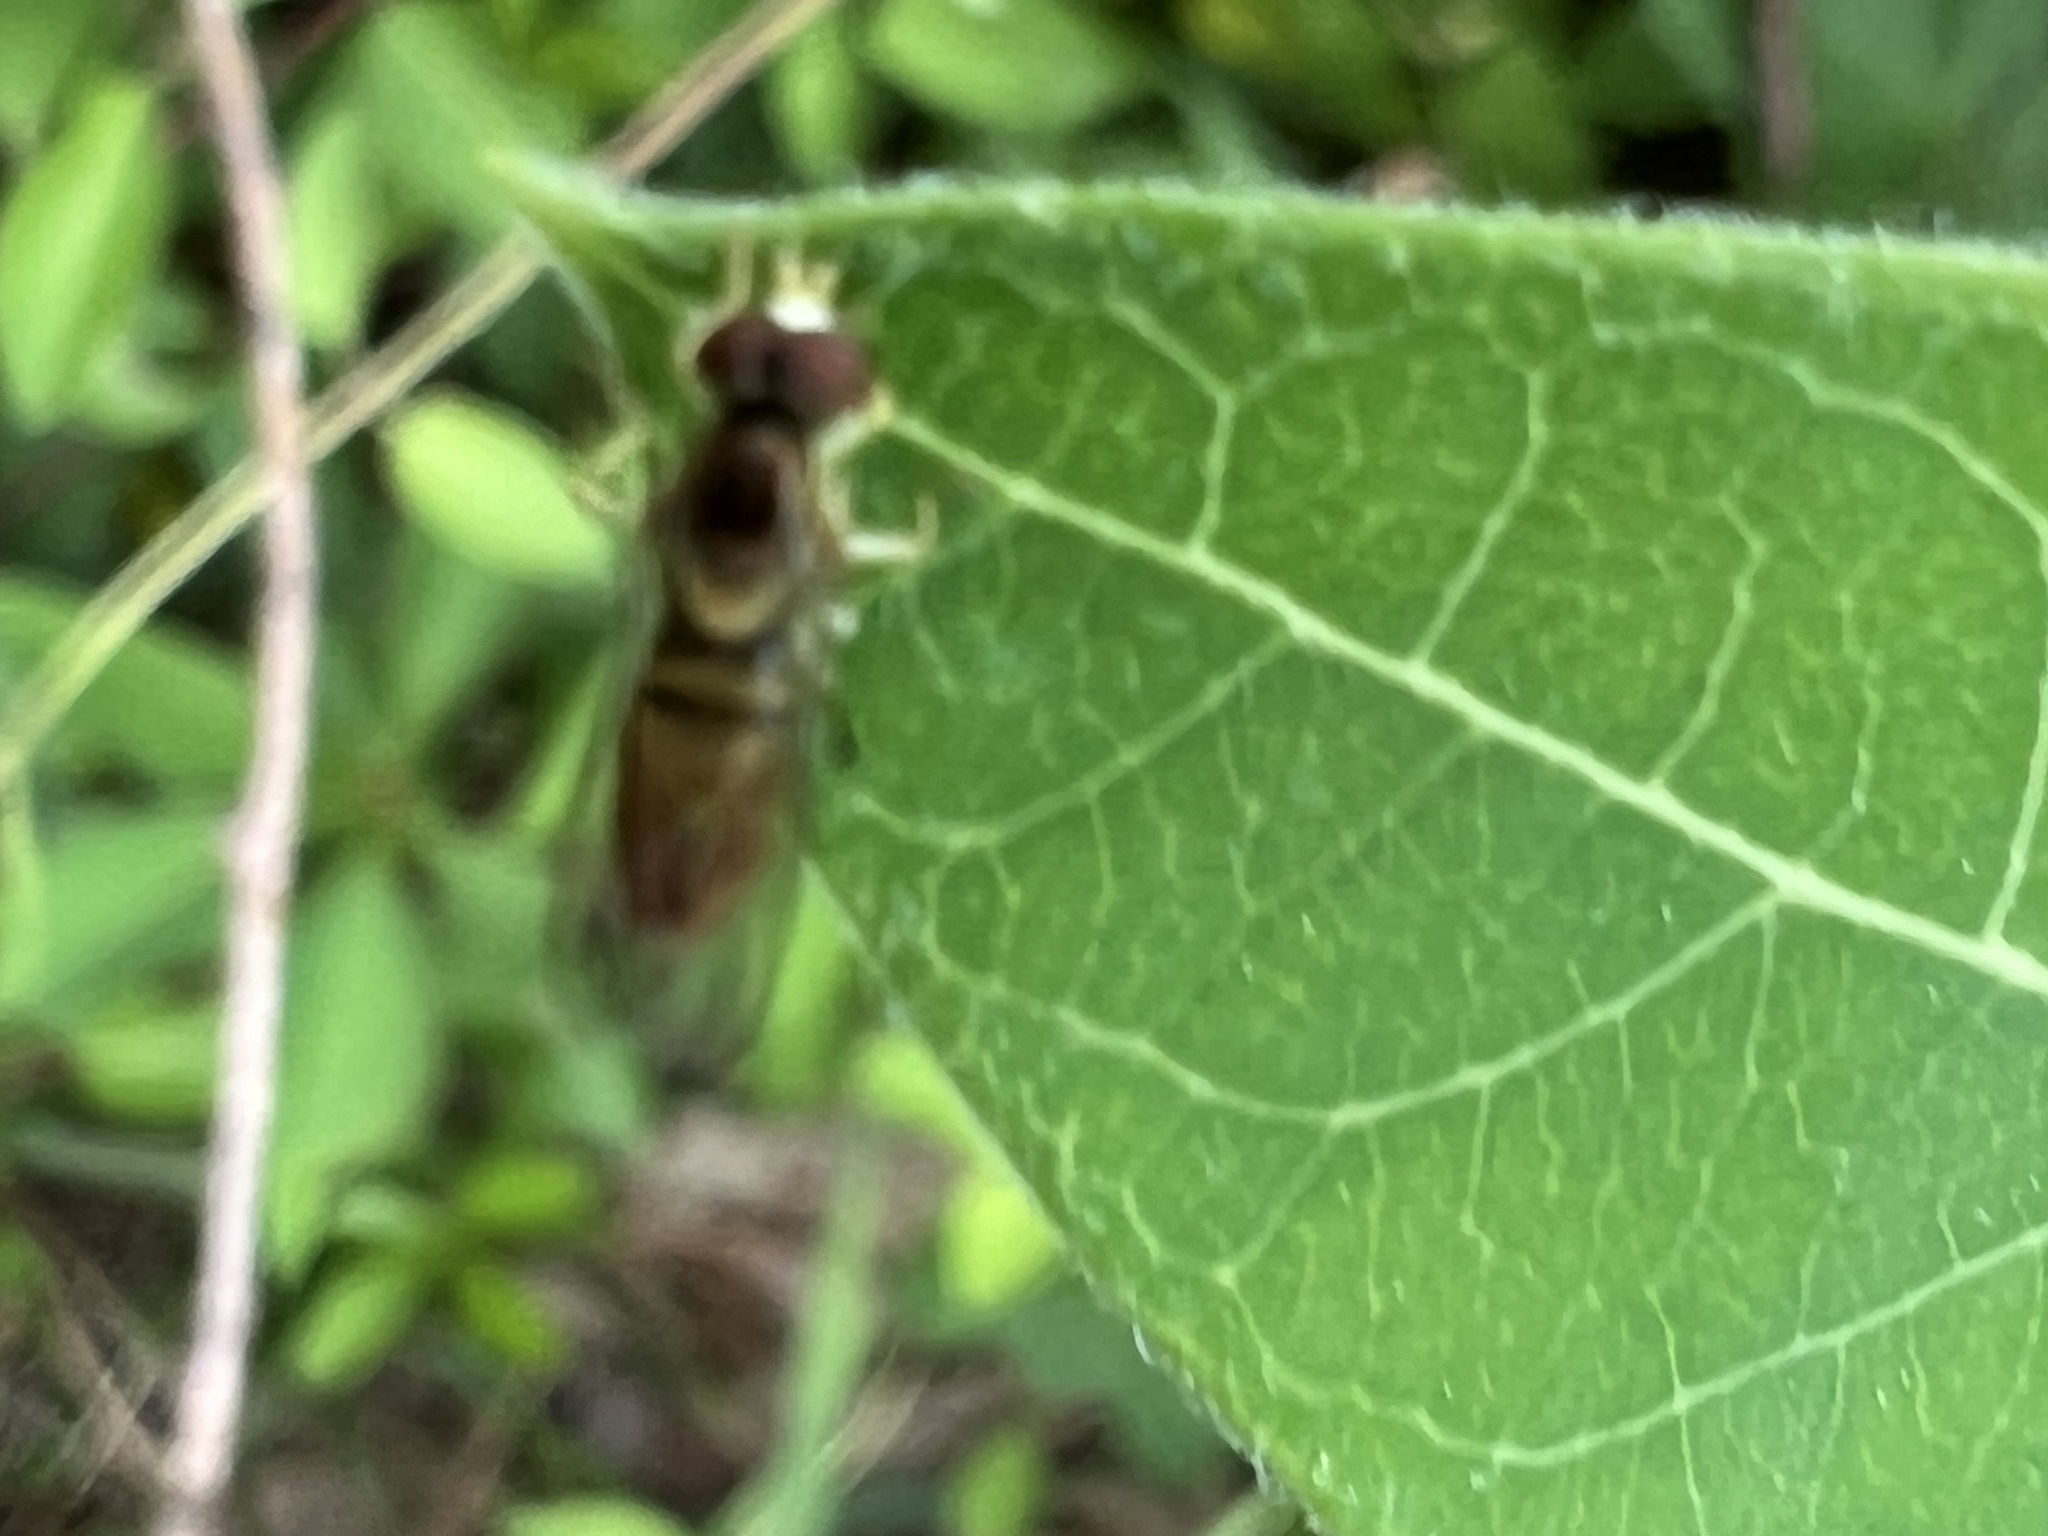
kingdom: Animalia
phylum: Arthropoda
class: Insecta
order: Diptera
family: Syrphidae
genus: Toxomerus
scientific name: Toxomerus marginatus
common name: Syrphid fly
